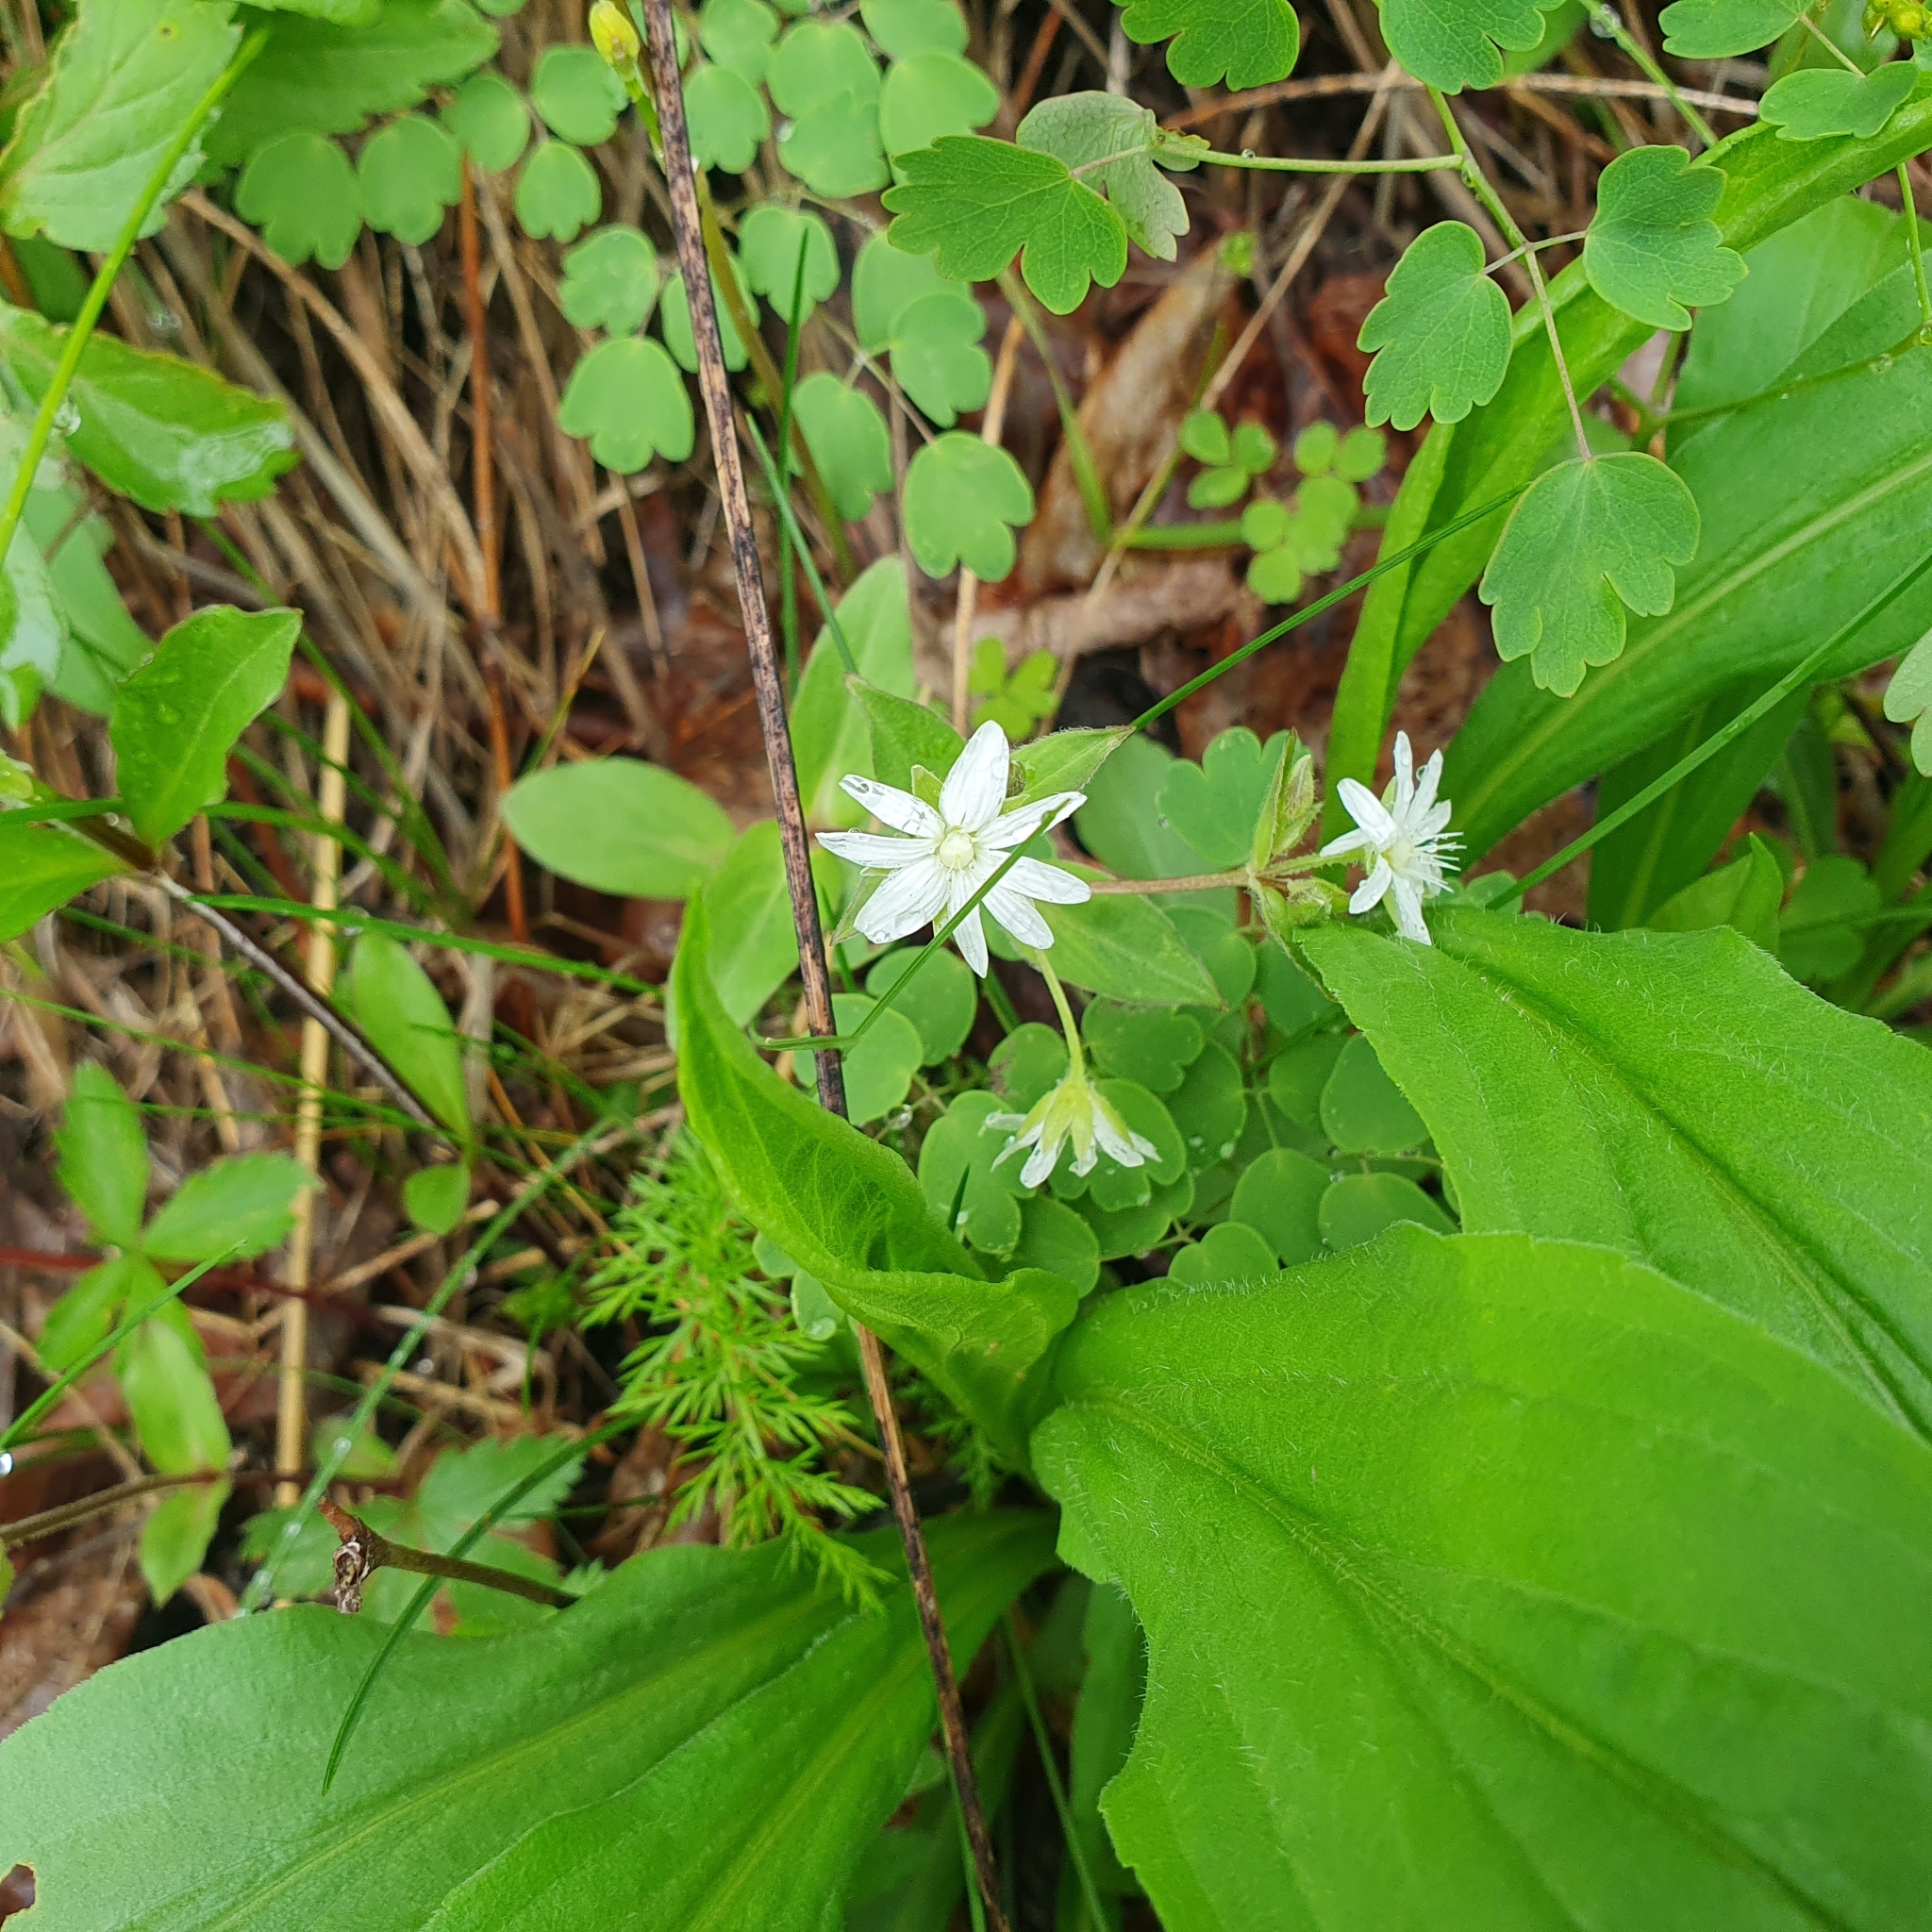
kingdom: Plantae
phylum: Tracheophyta
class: Magnoliopsida
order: Ranunculales
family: Ranunculaceae
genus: Thalictrum
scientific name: Thalictrum thalictroides
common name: Rue-anemone
